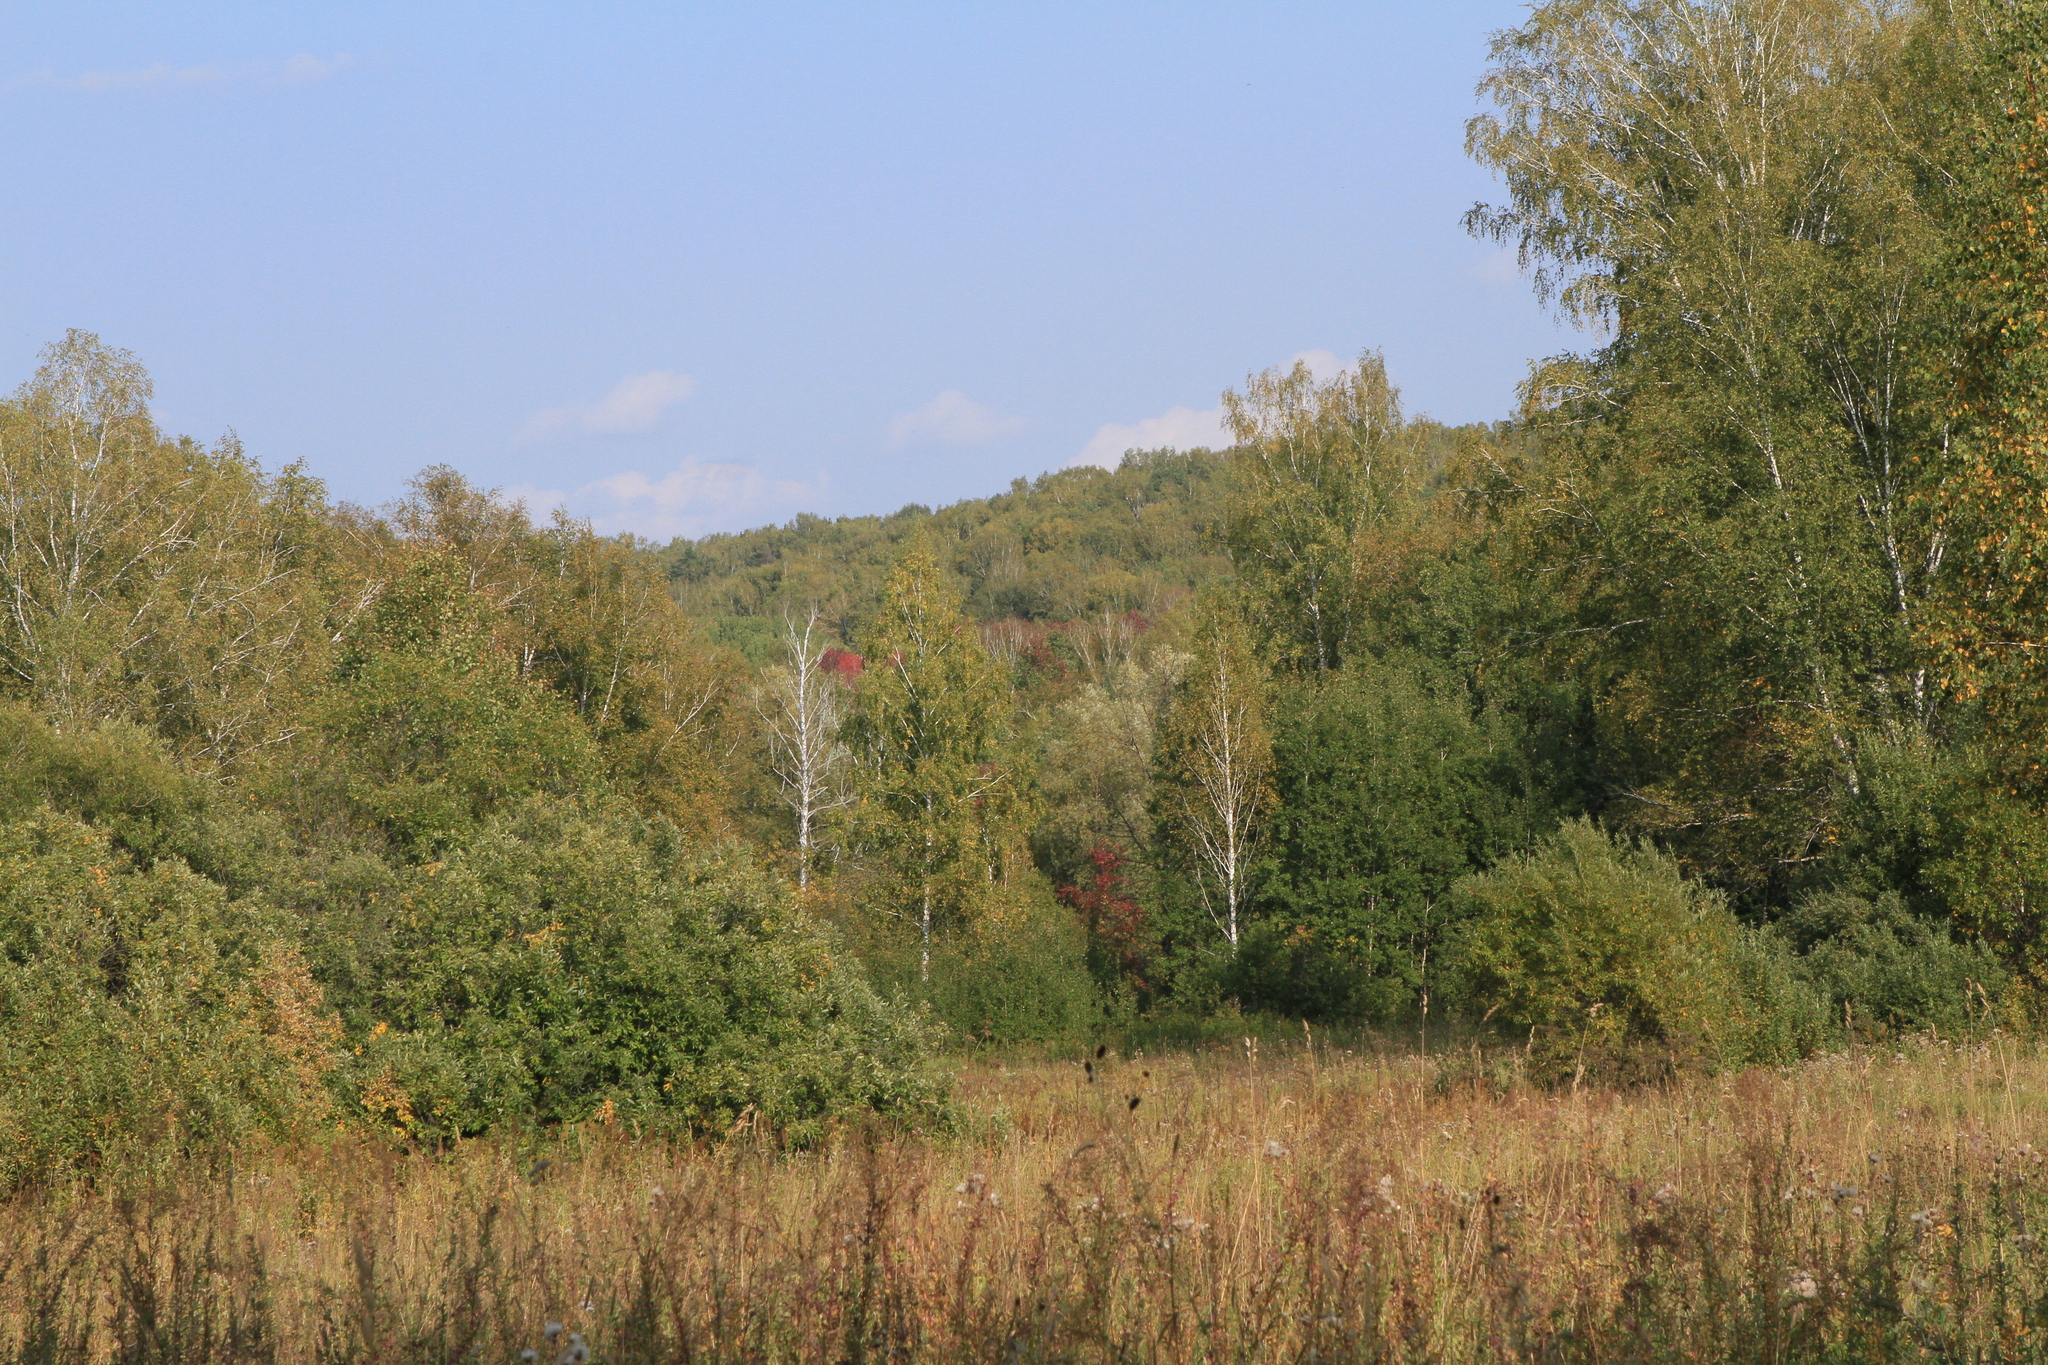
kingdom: Plantae
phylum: Tracheophyta
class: Magnoliopsida
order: Fagales
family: Betulaceae
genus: Betula
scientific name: Betula pendula
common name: Silver birch
